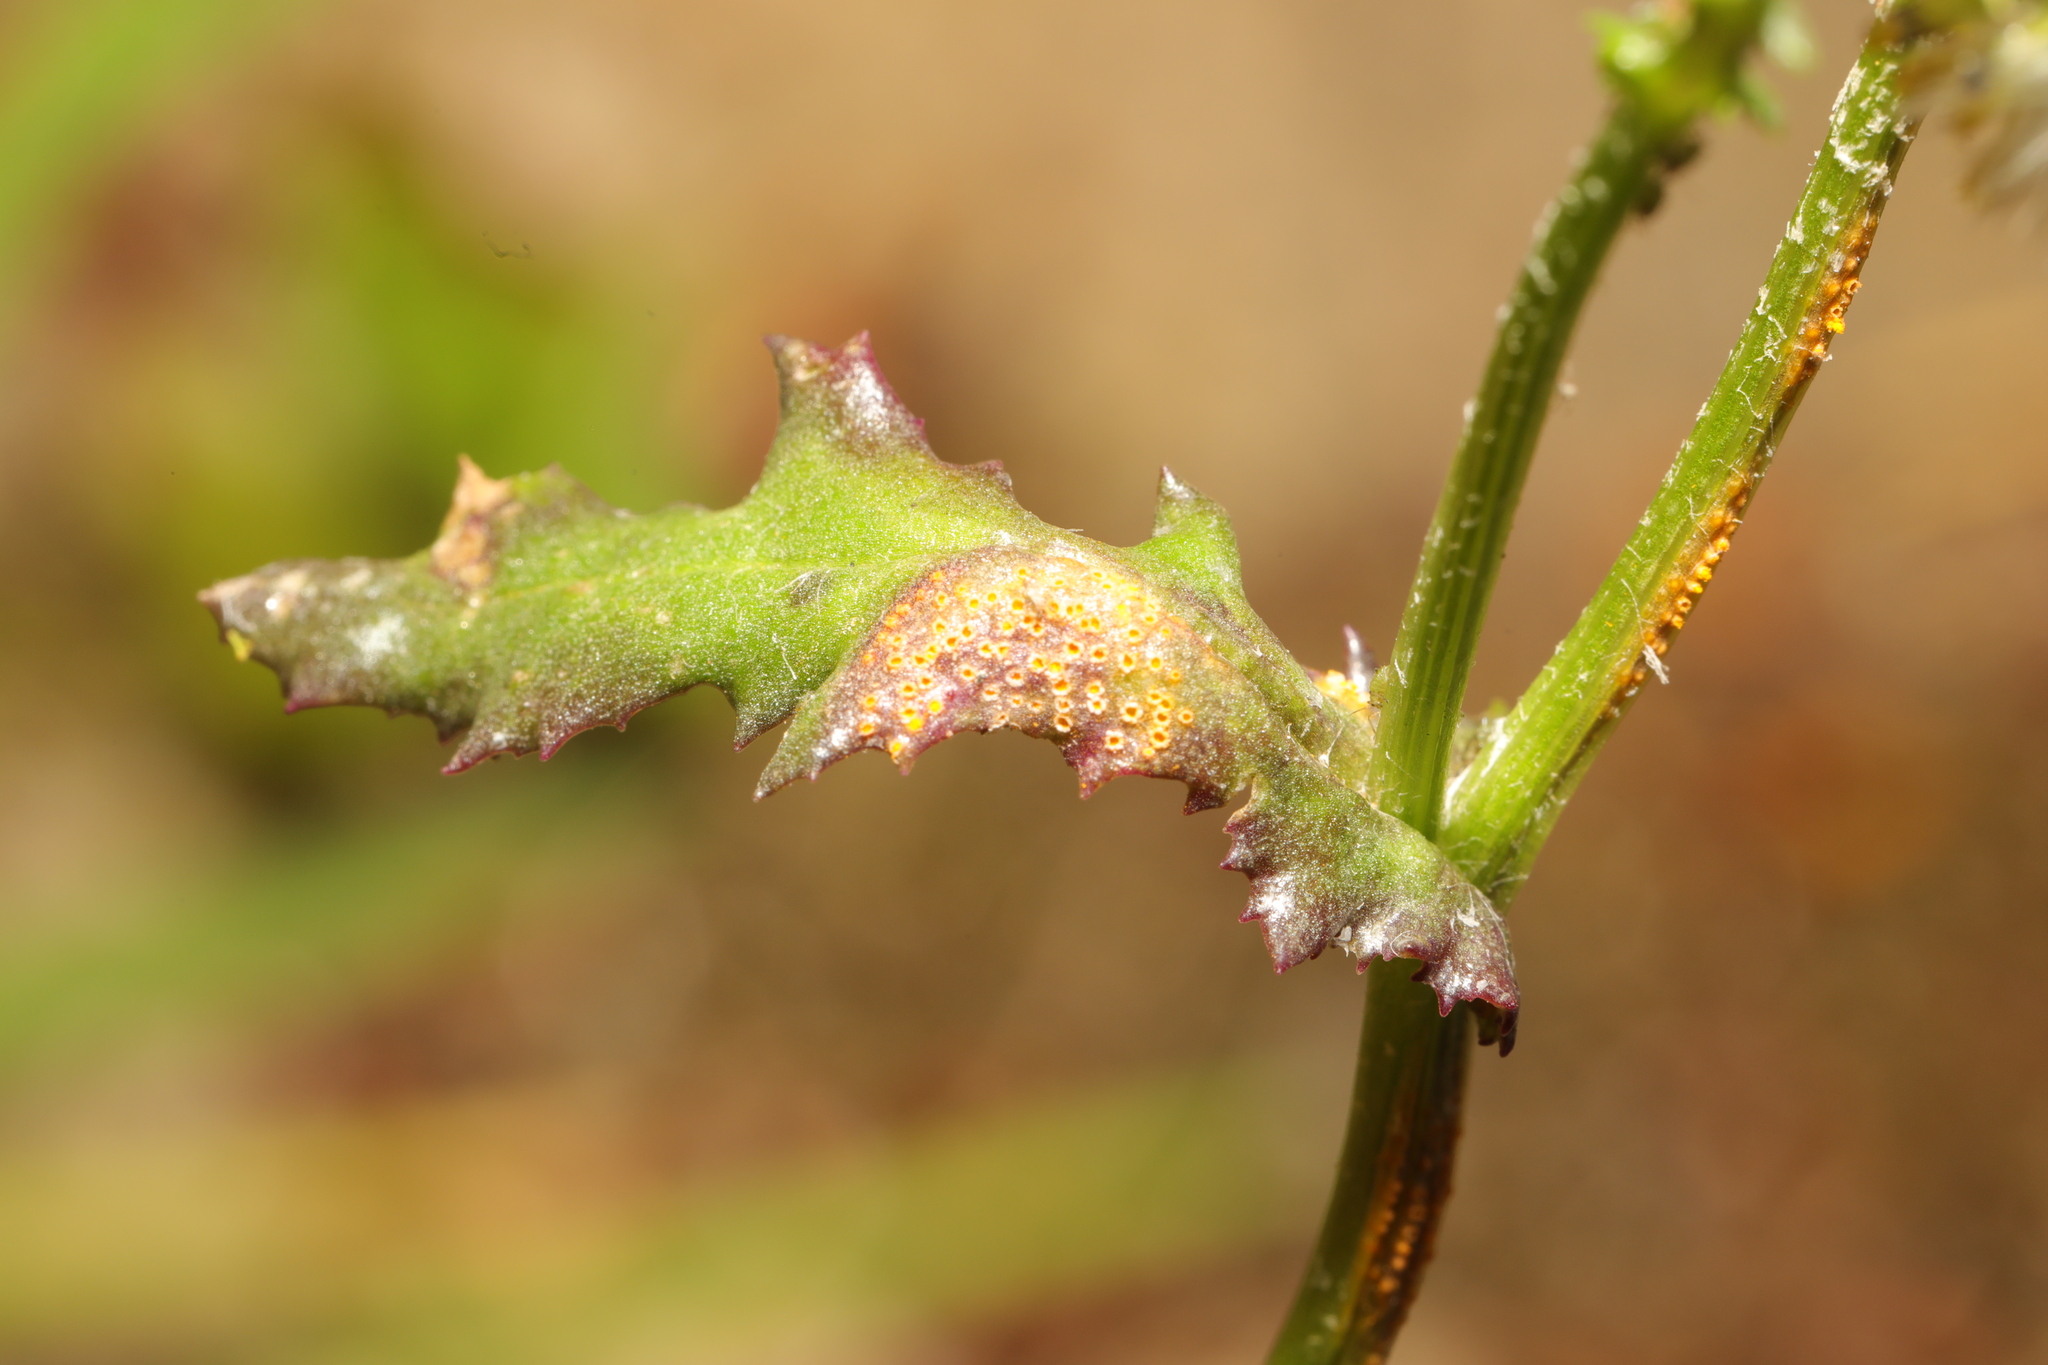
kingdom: Fungi
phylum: Basidiomycota
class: Pucciniomycetes
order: Pucciniales
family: Pucciniaceae
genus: Puccinia
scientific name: Puccinia lagenophorae
